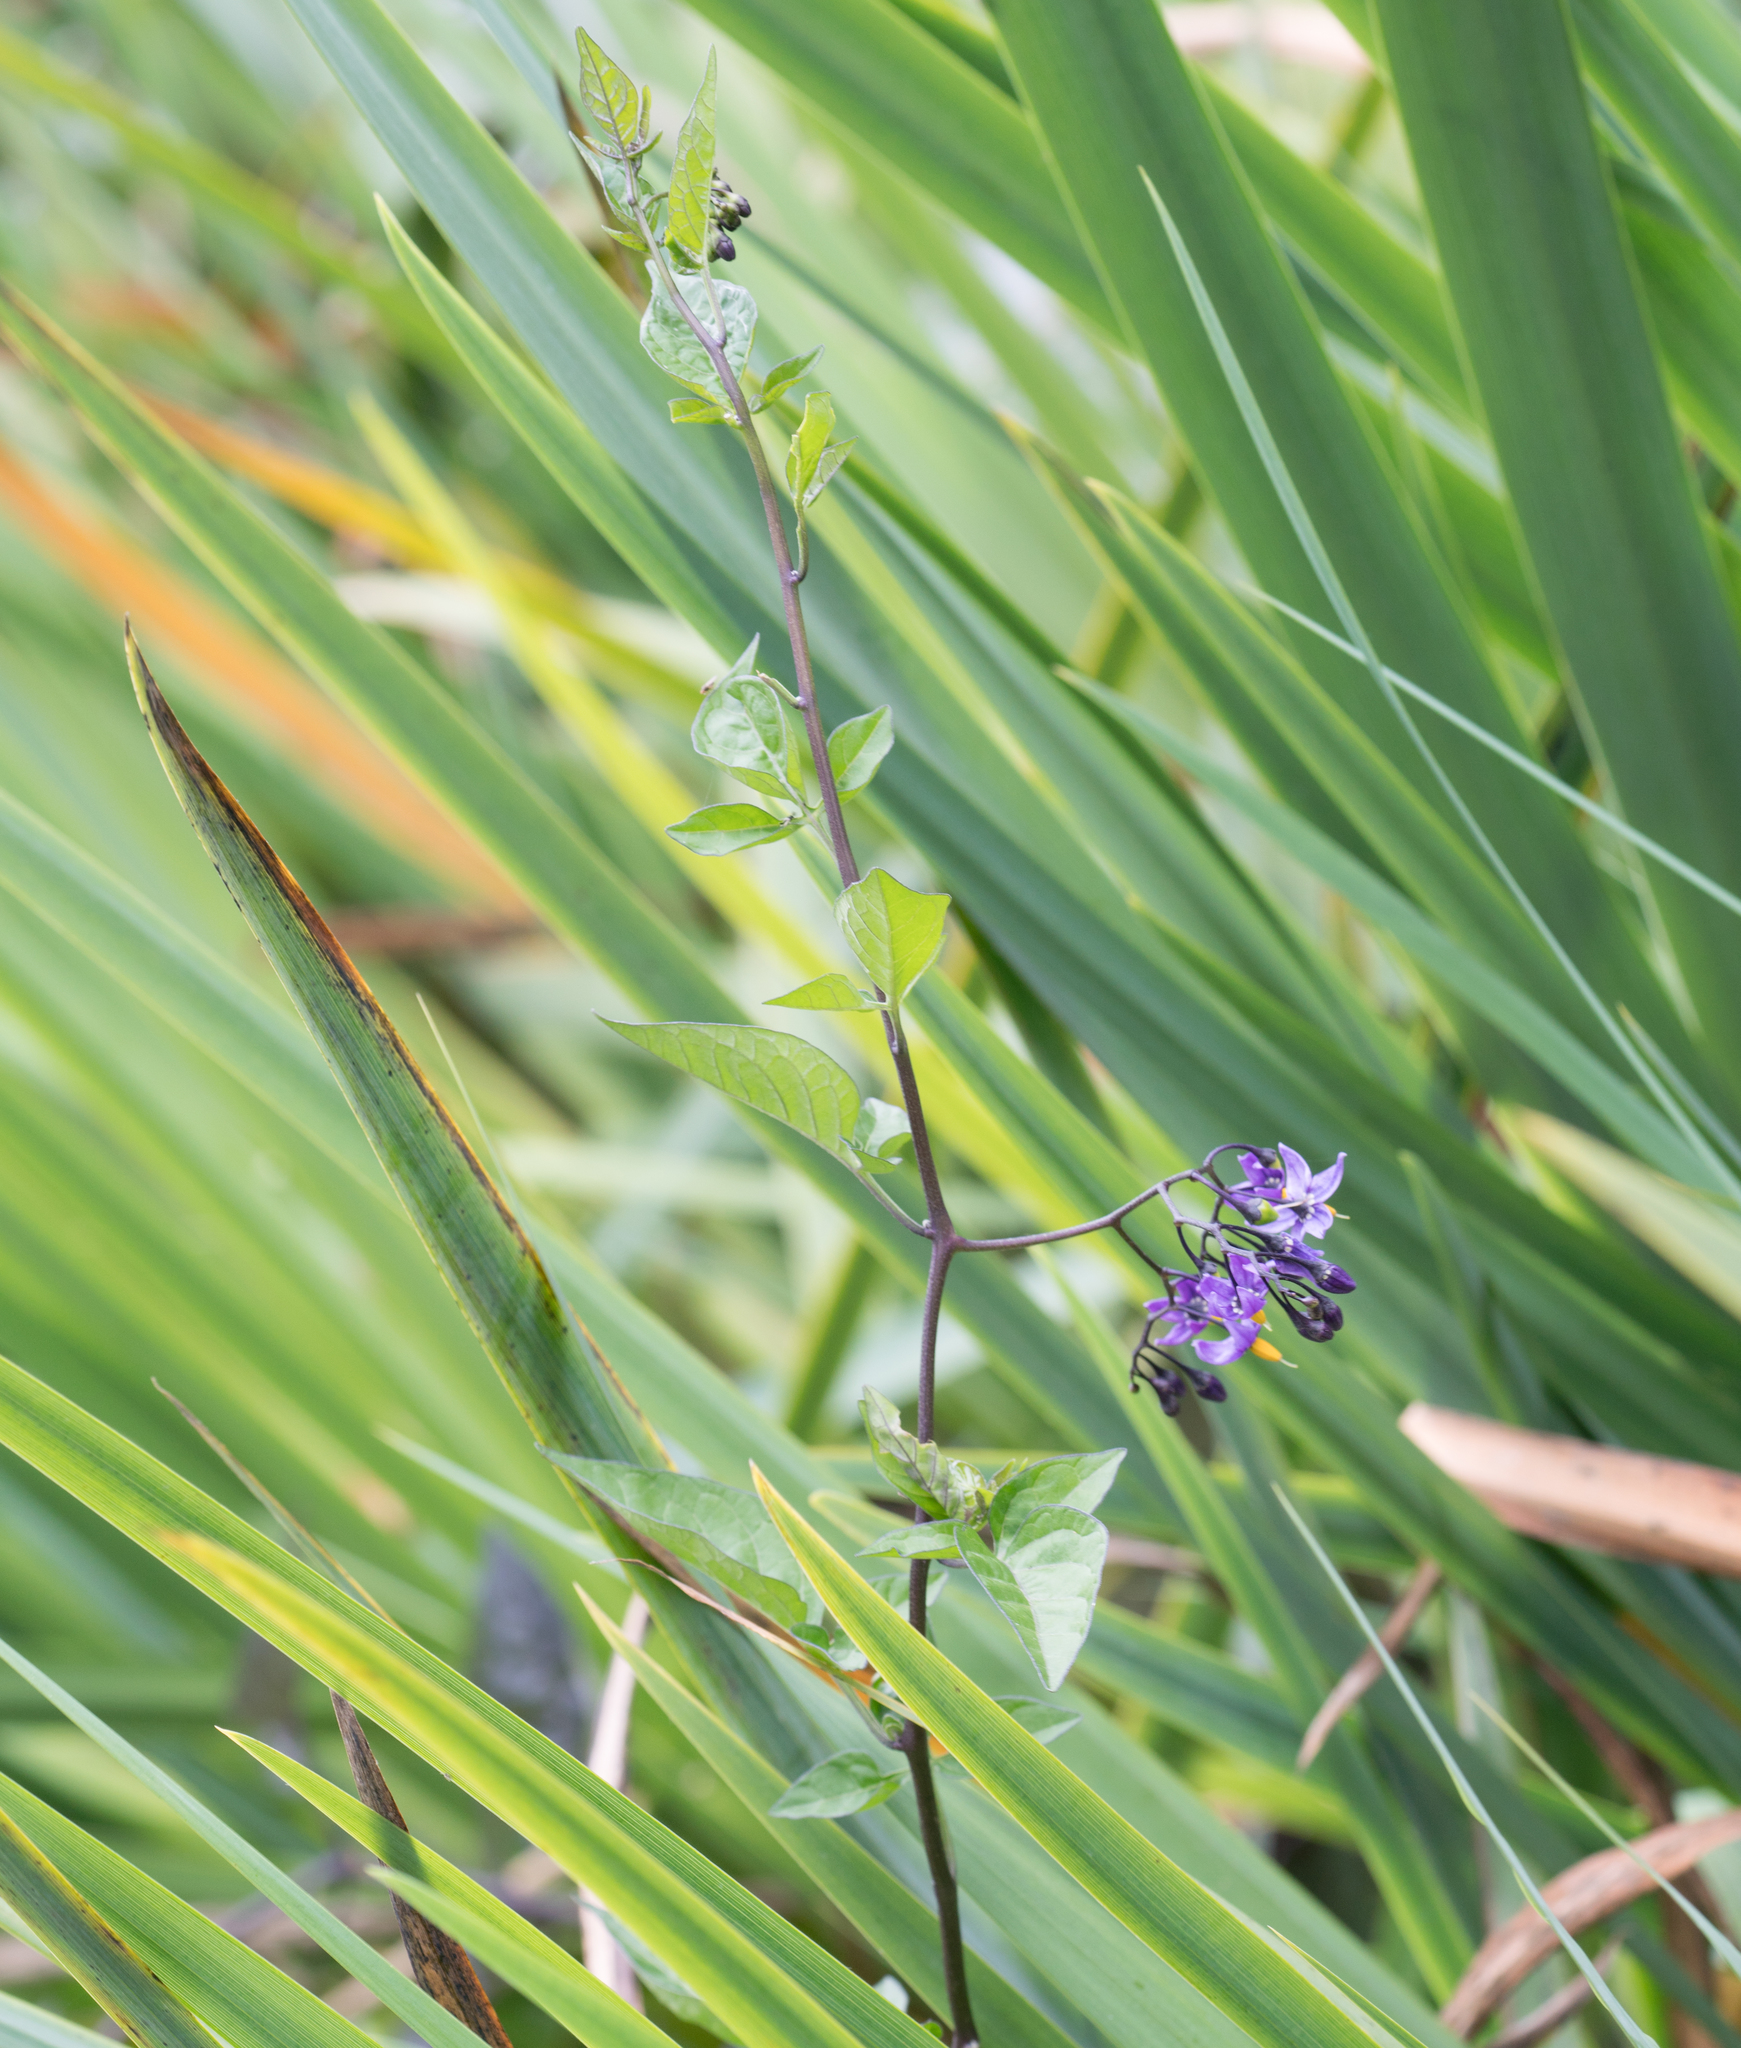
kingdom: Plantae
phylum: Tracheophyta
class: Magnoliopsida
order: Solanales
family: Solanaceae
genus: Solanum
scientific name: Solanum dulcamara
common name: Climbing nightshade
